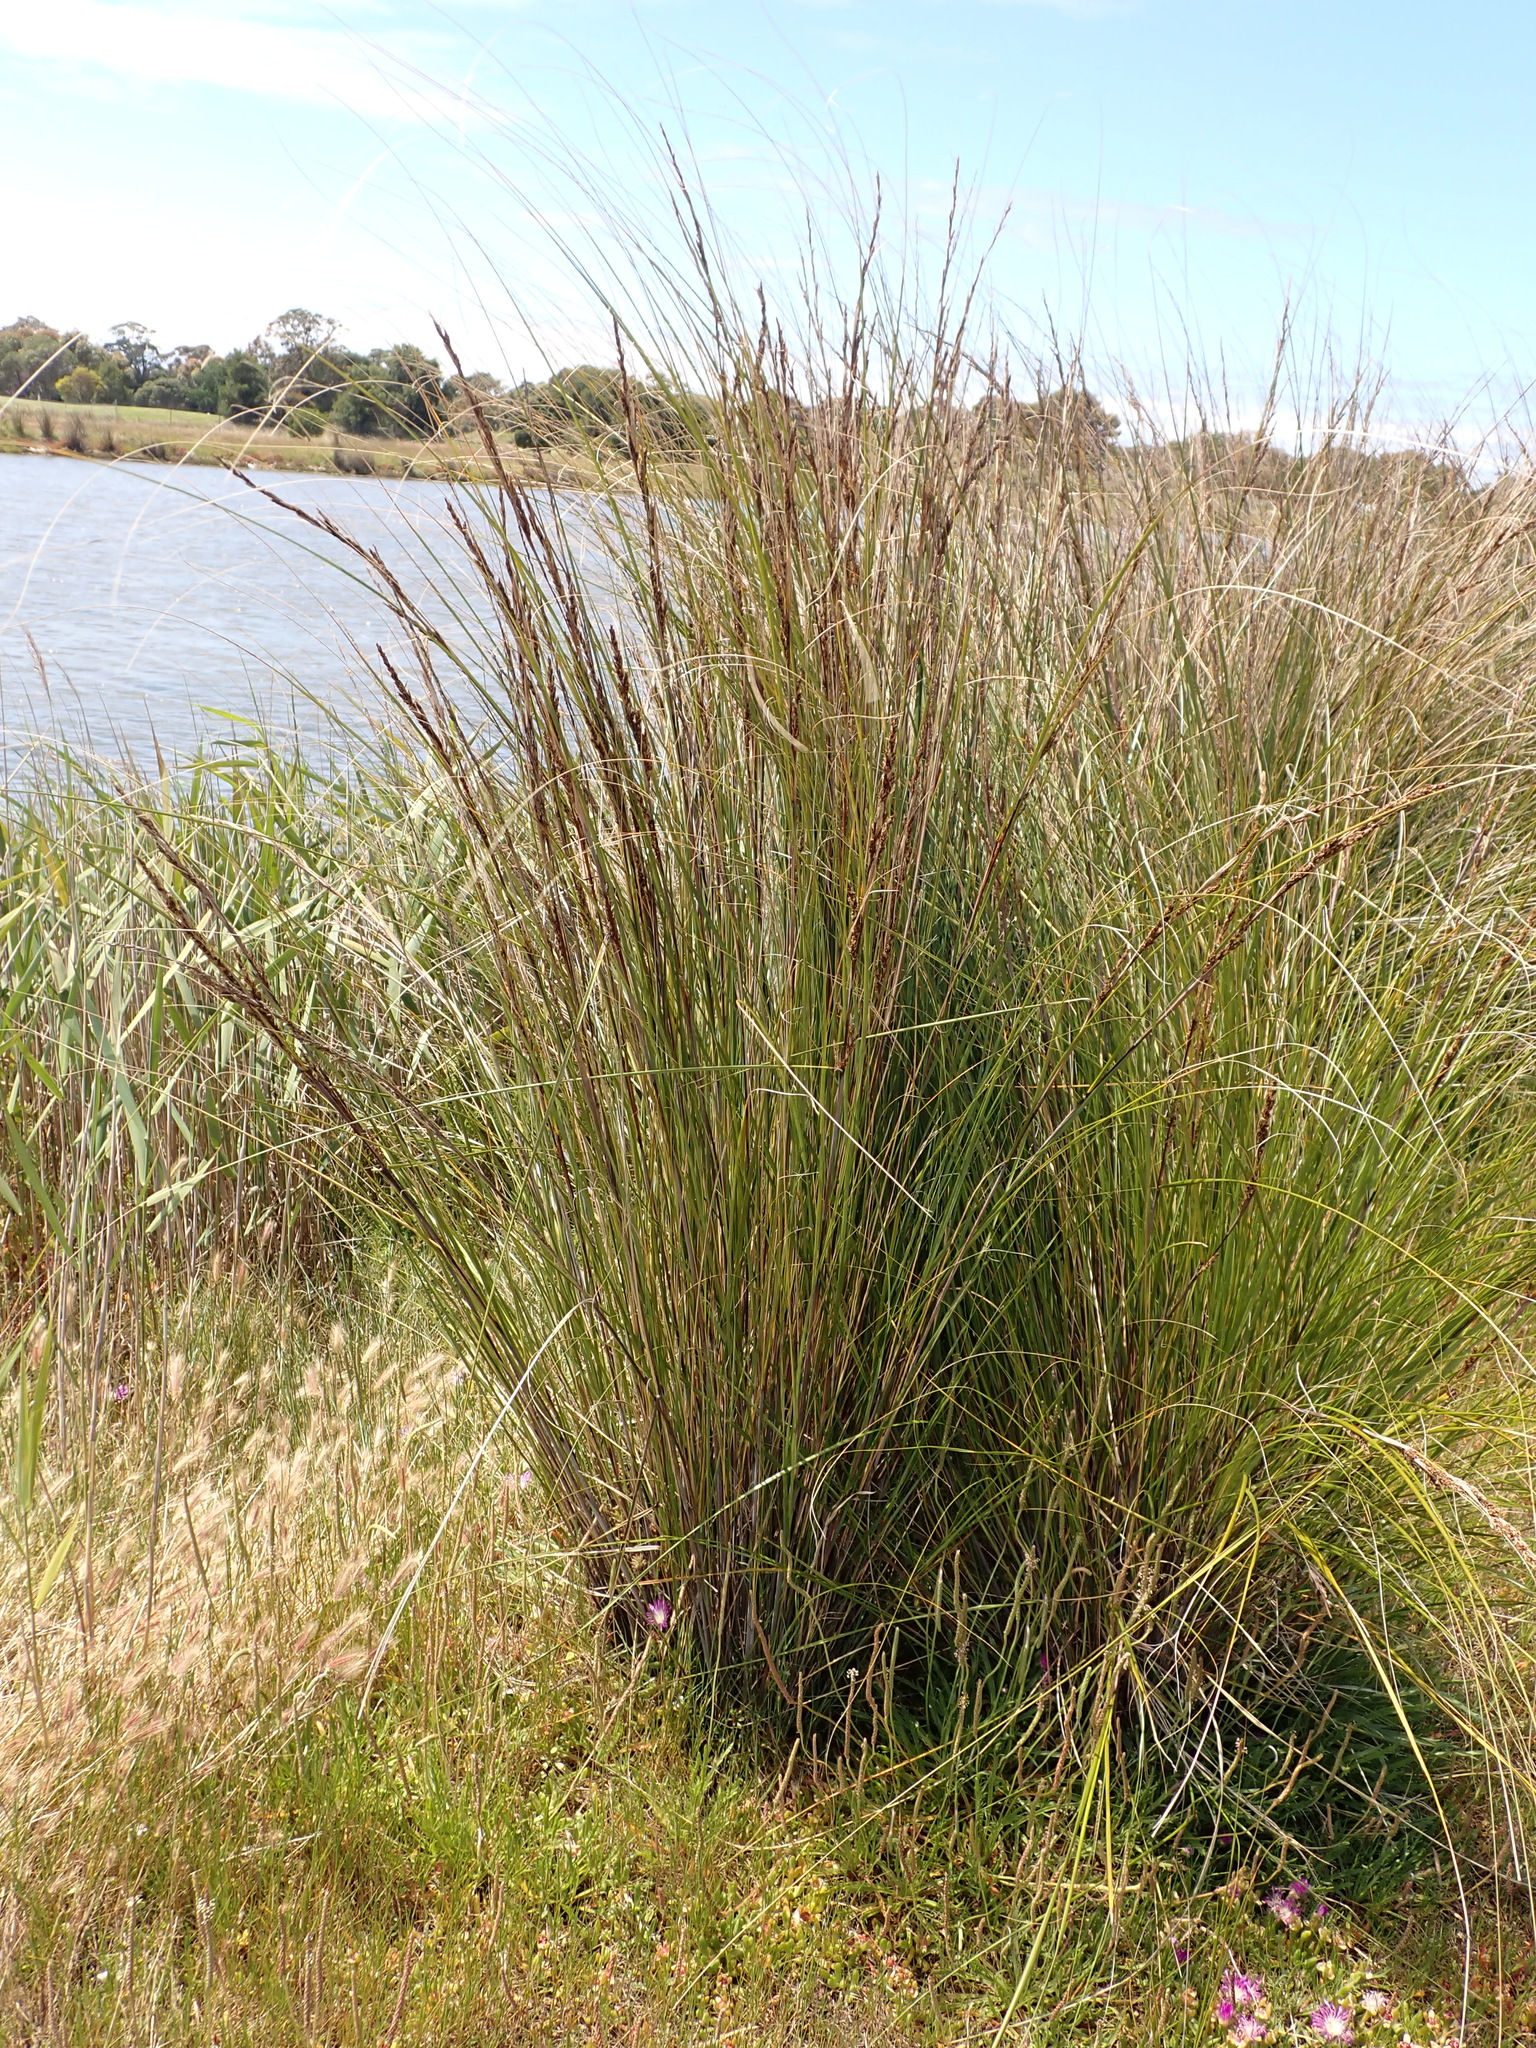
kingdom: Plantae
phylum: Tracheophyta
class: Liliopsida
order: Poales
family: Cyperaceae
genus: Gahnia
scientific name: Gahnia filum
